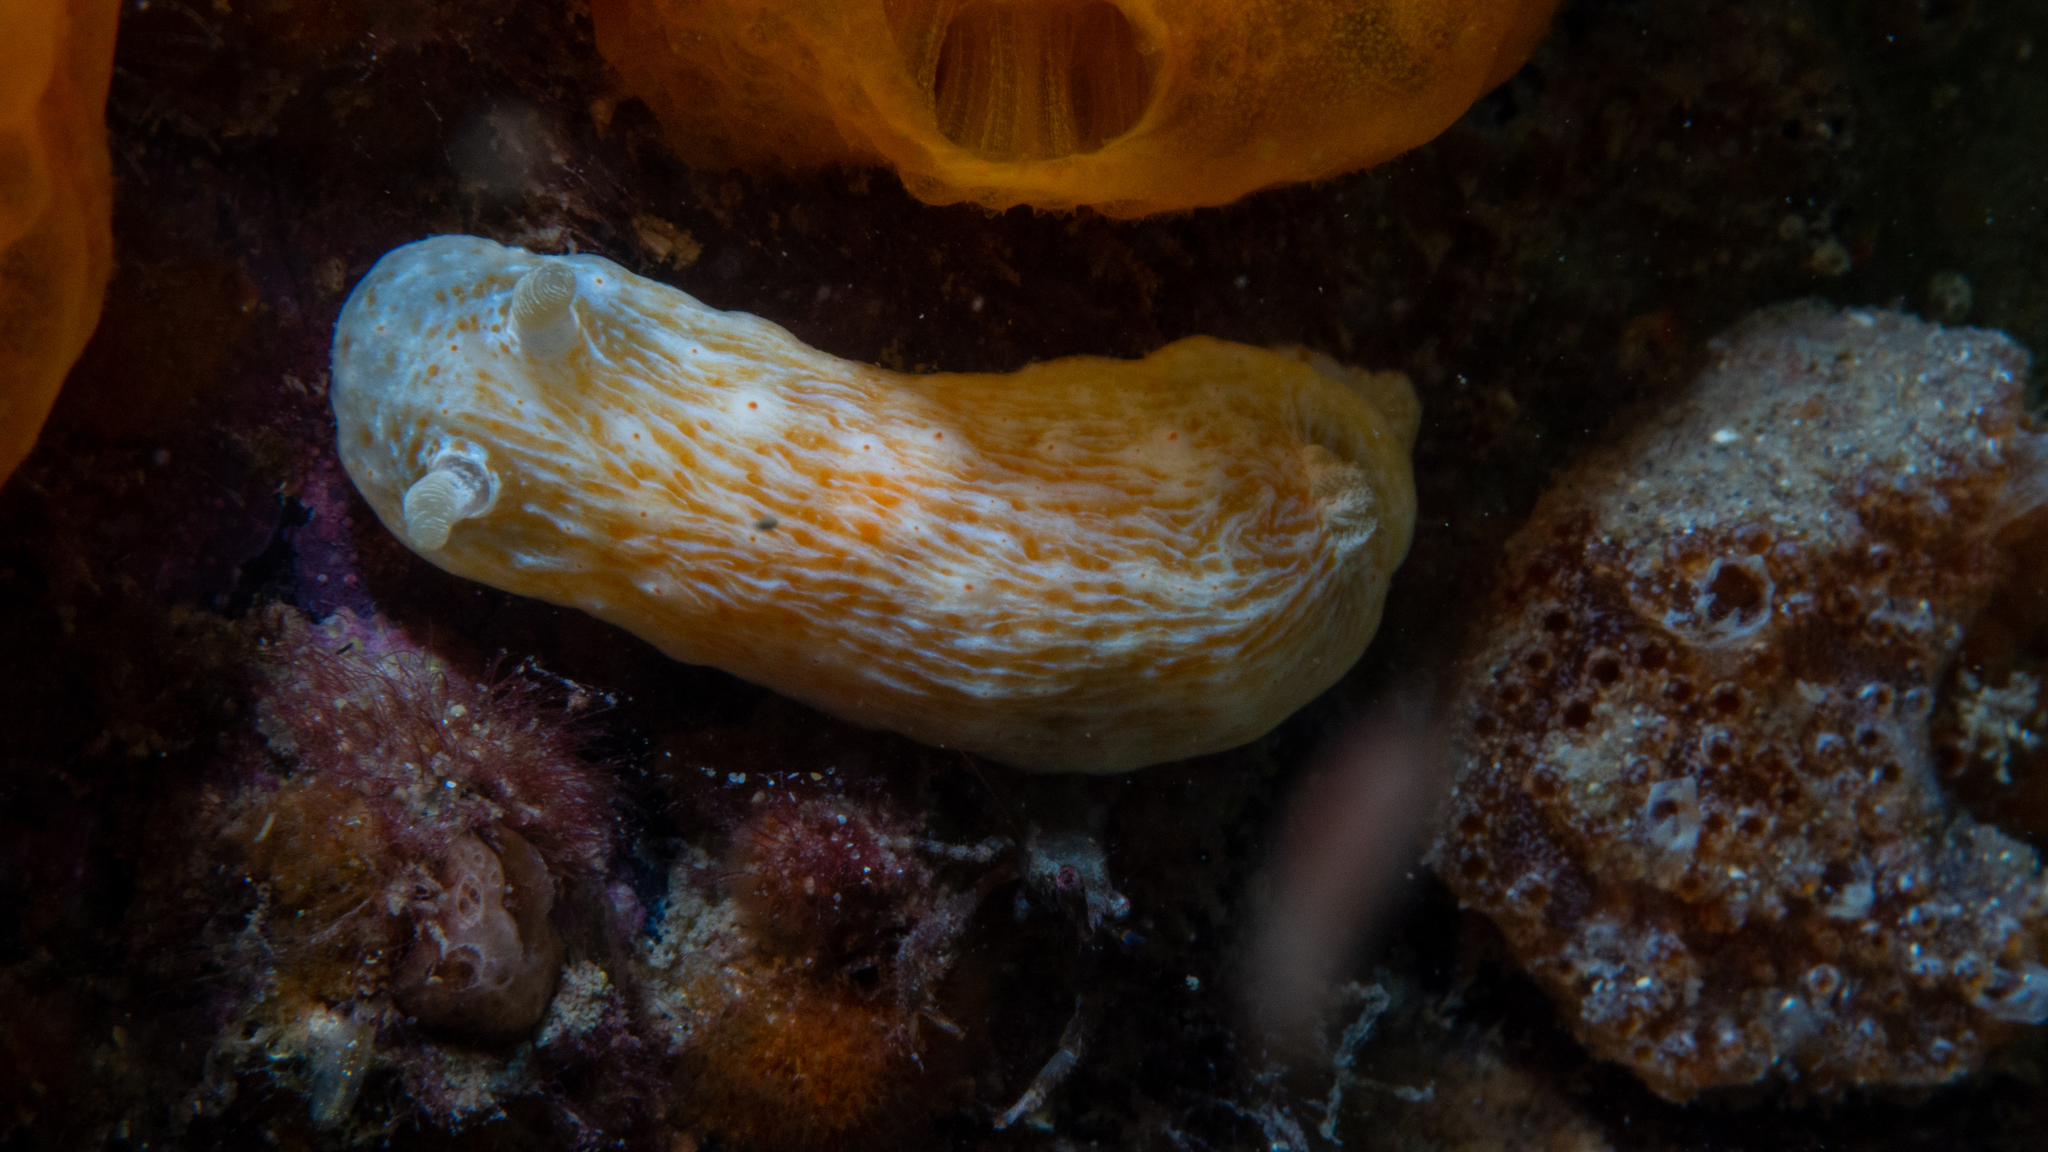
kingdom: Animalia
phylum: Mollusca
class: Gastropoda
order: Nudibranchia
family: Chromodorididae
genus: Goniobranchus
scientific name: Goniobranchus epicurius
